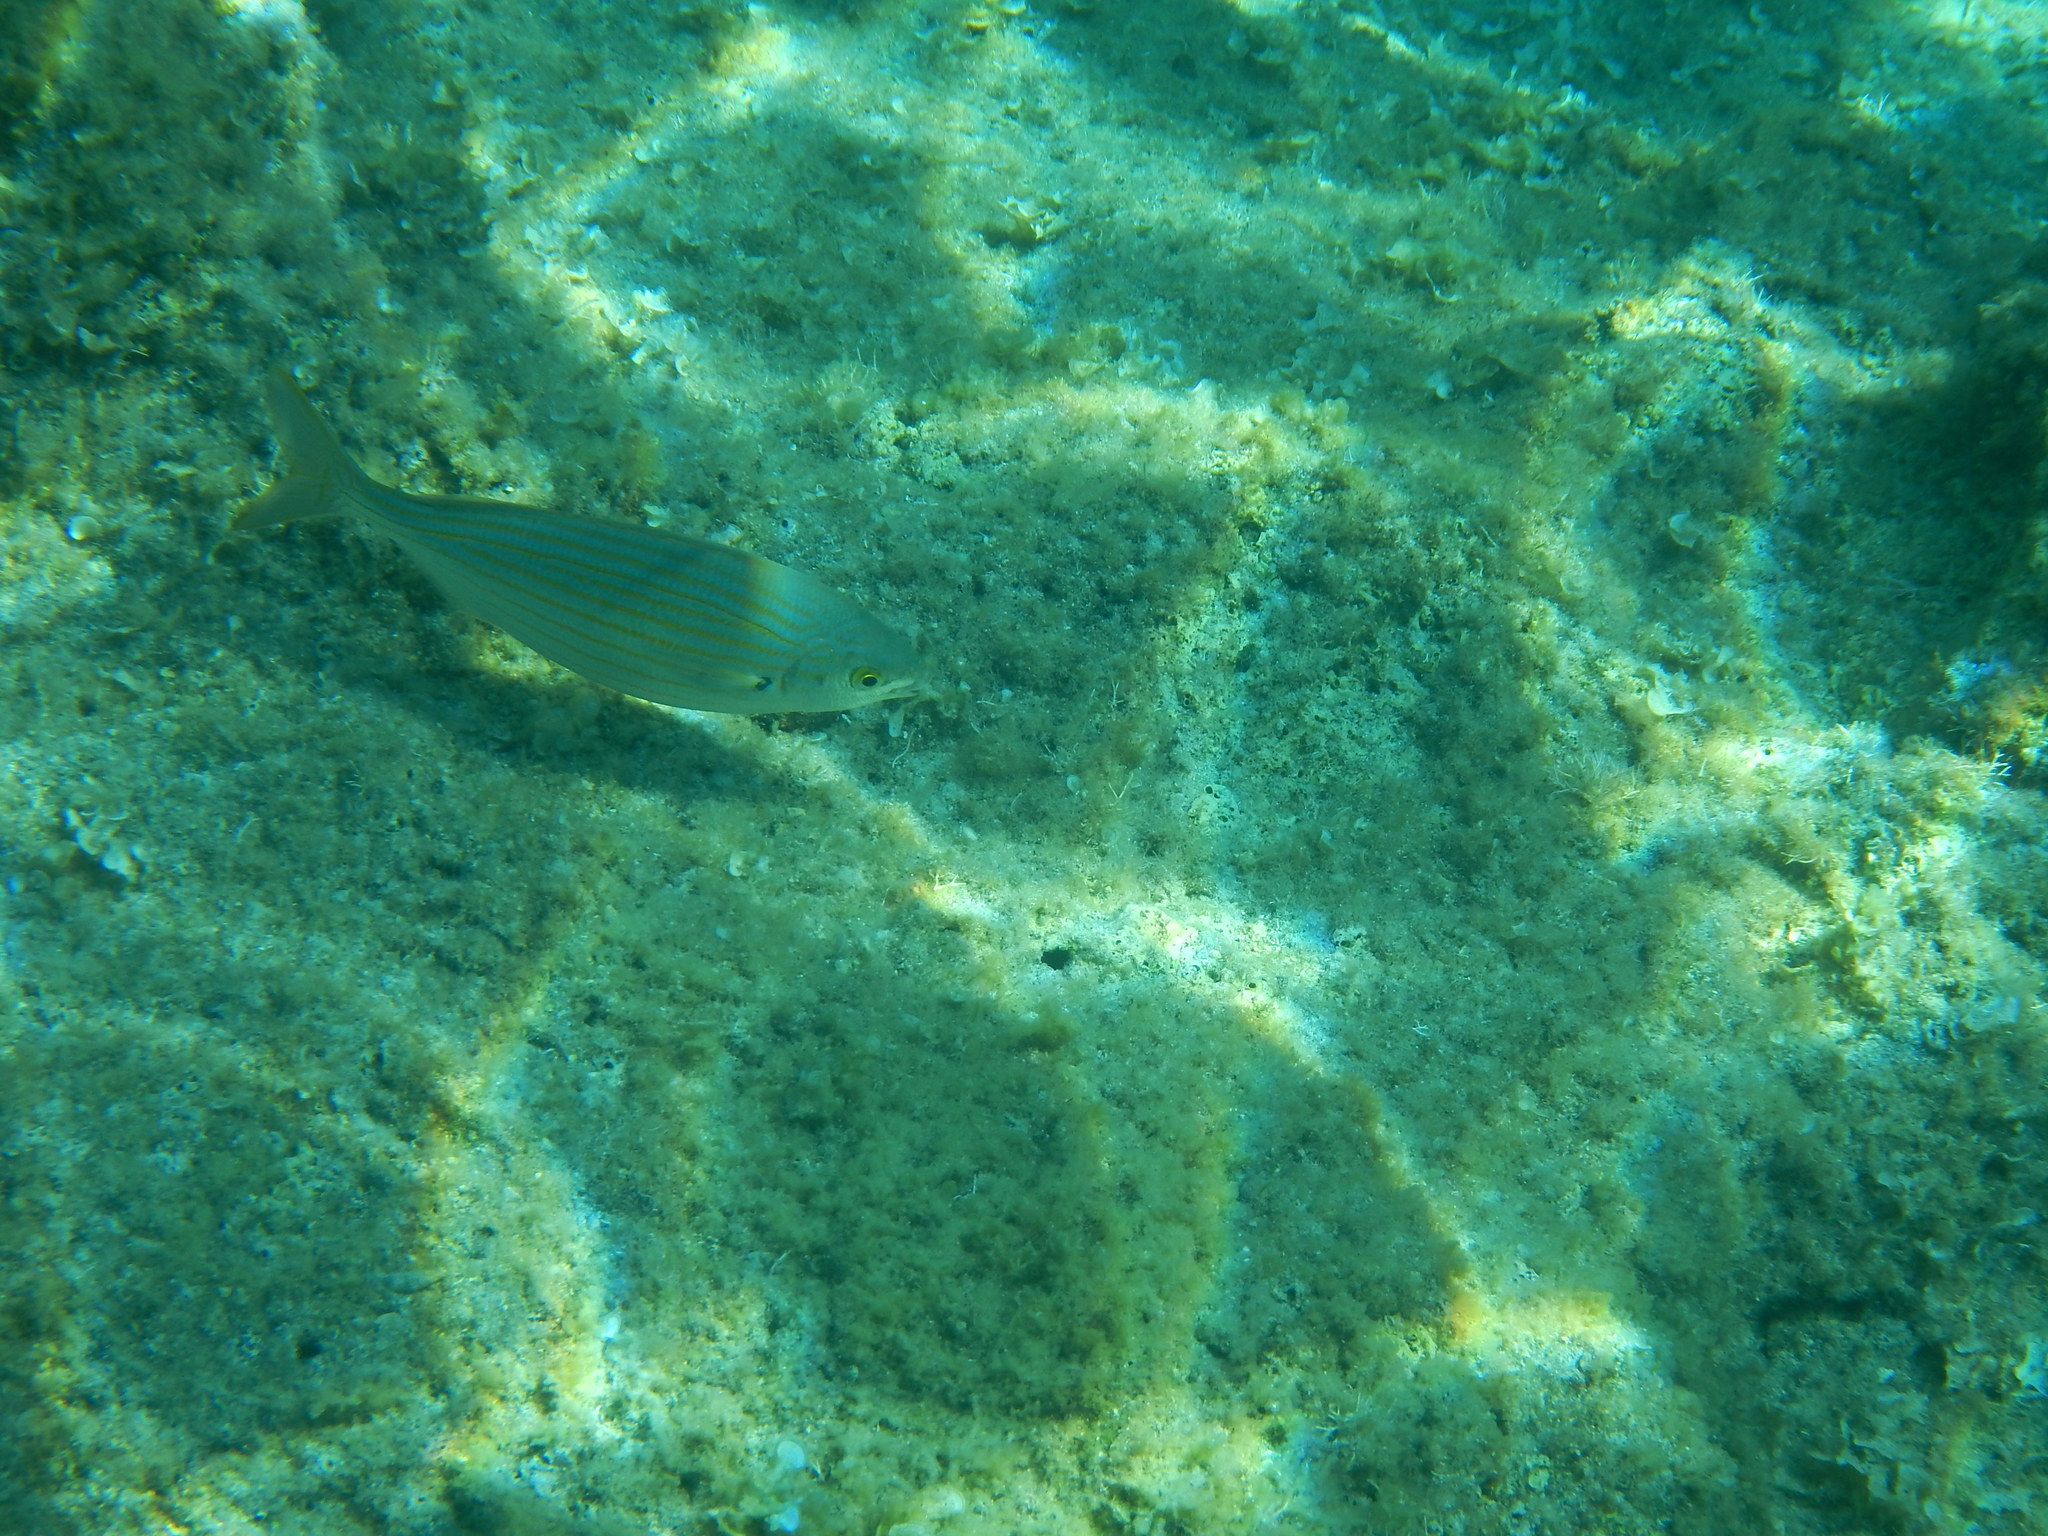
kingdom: Animalia
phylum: Chordata
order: Perciformes
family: Sparidae
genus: Sarpa
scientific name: Sarpa salpa
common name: Salema
